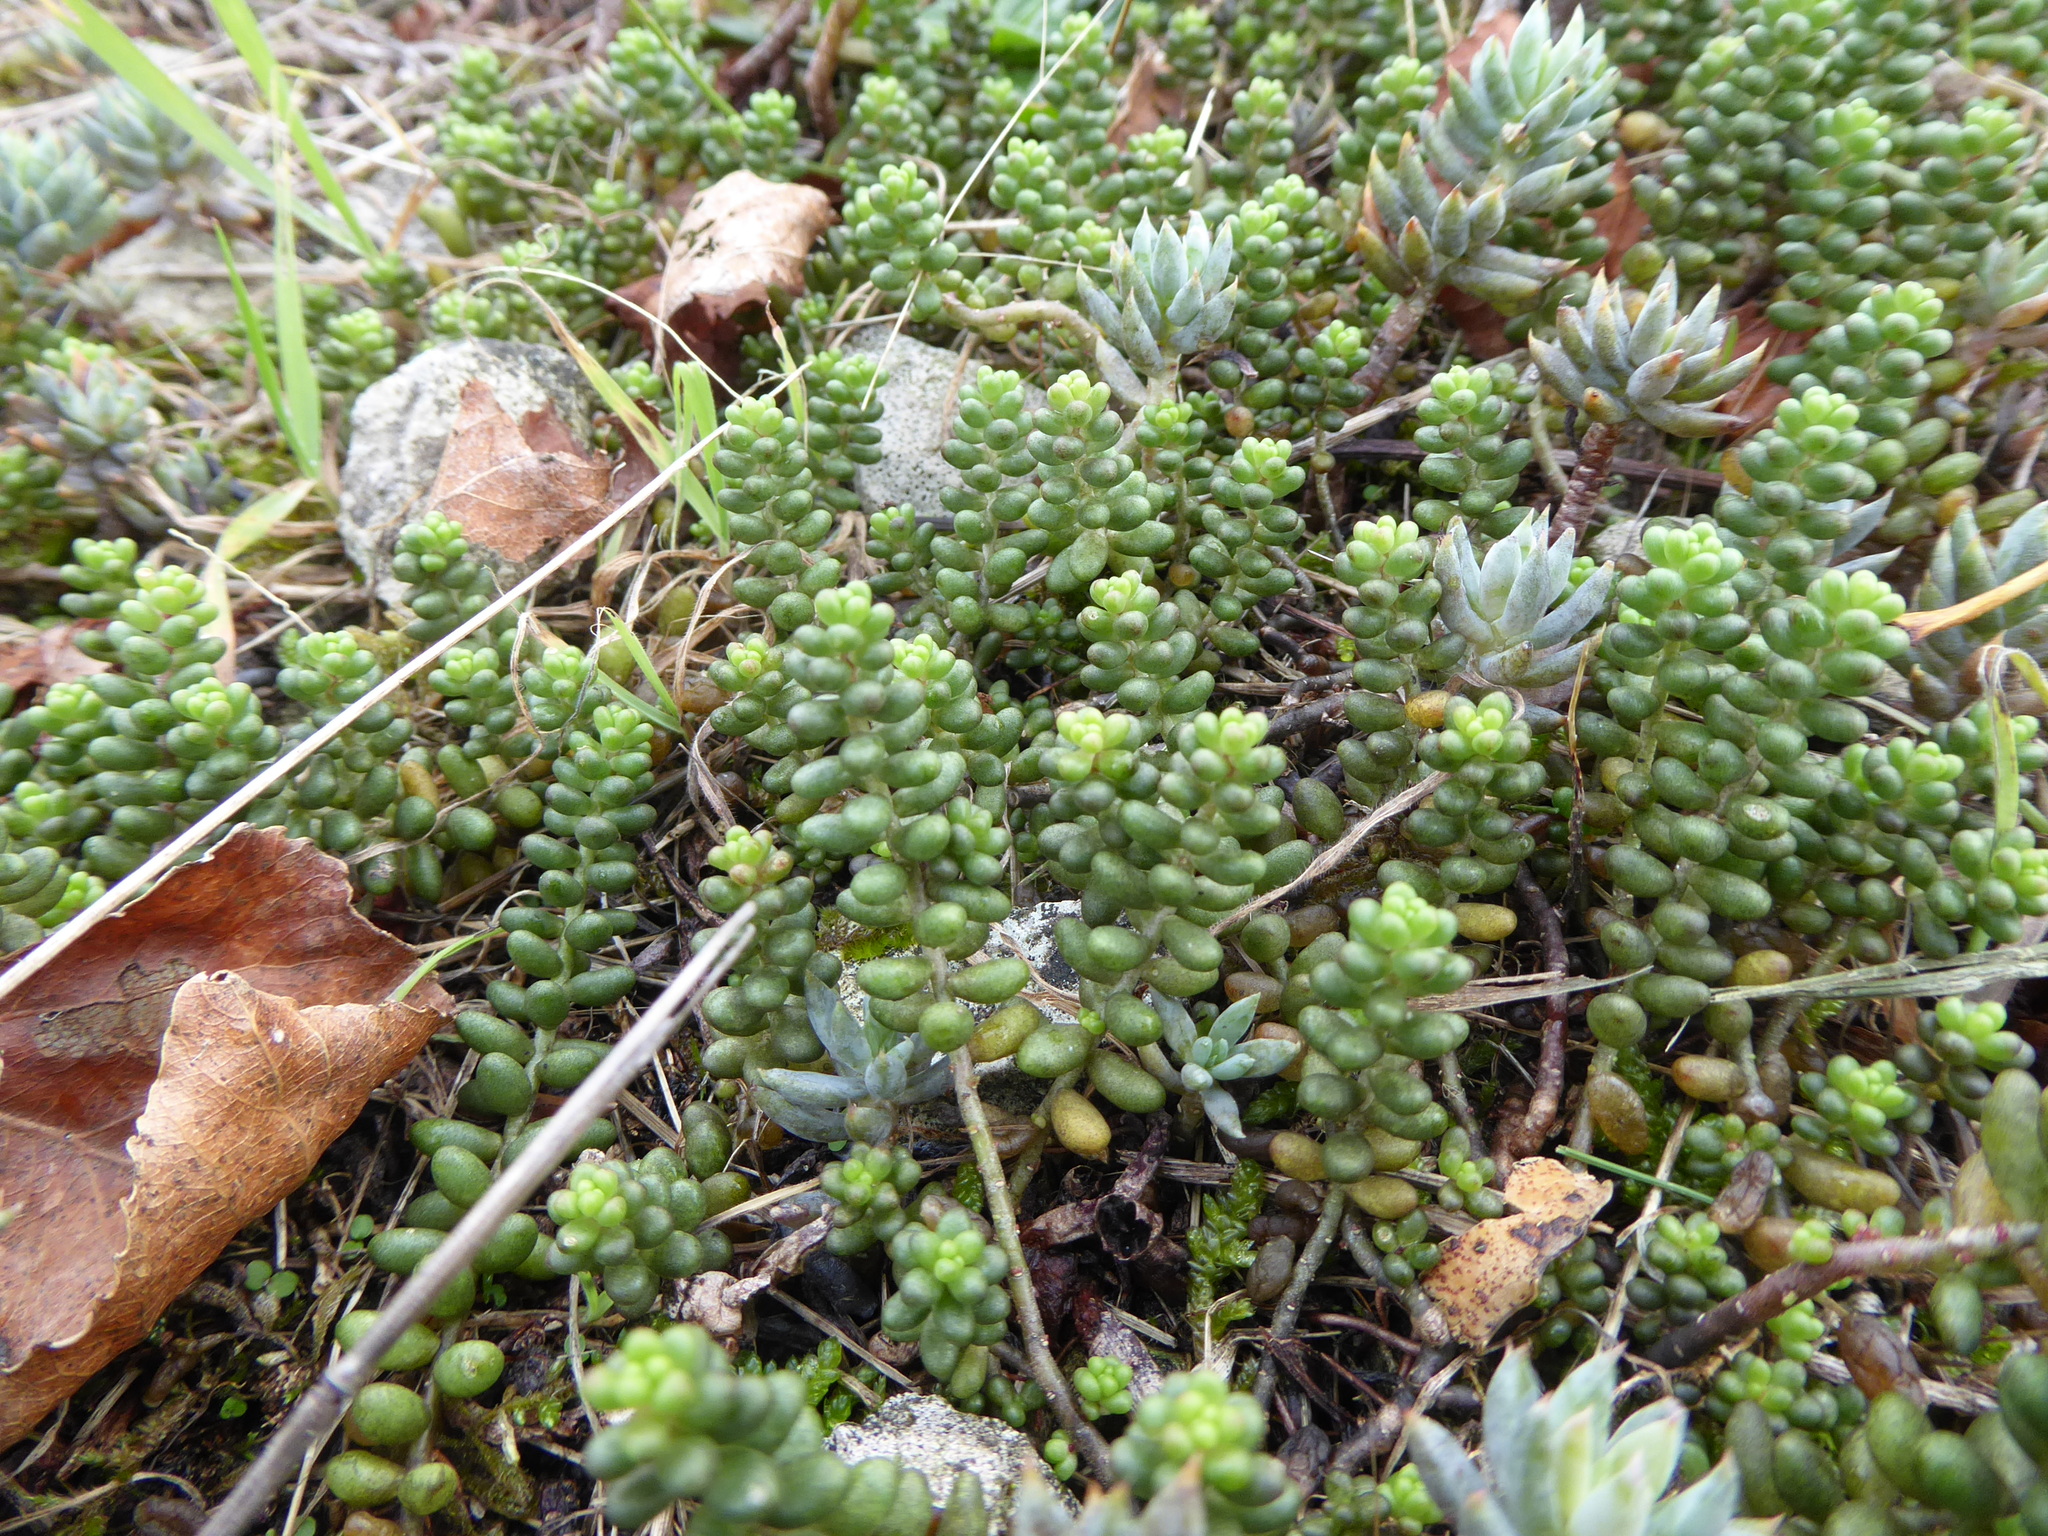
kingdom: Plantae
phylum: Tracheophyta
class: Magnoliopsida
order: Saxifragales
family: Crassulaceae
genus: Sedum
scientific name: Sedum album
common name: White stonecrop
